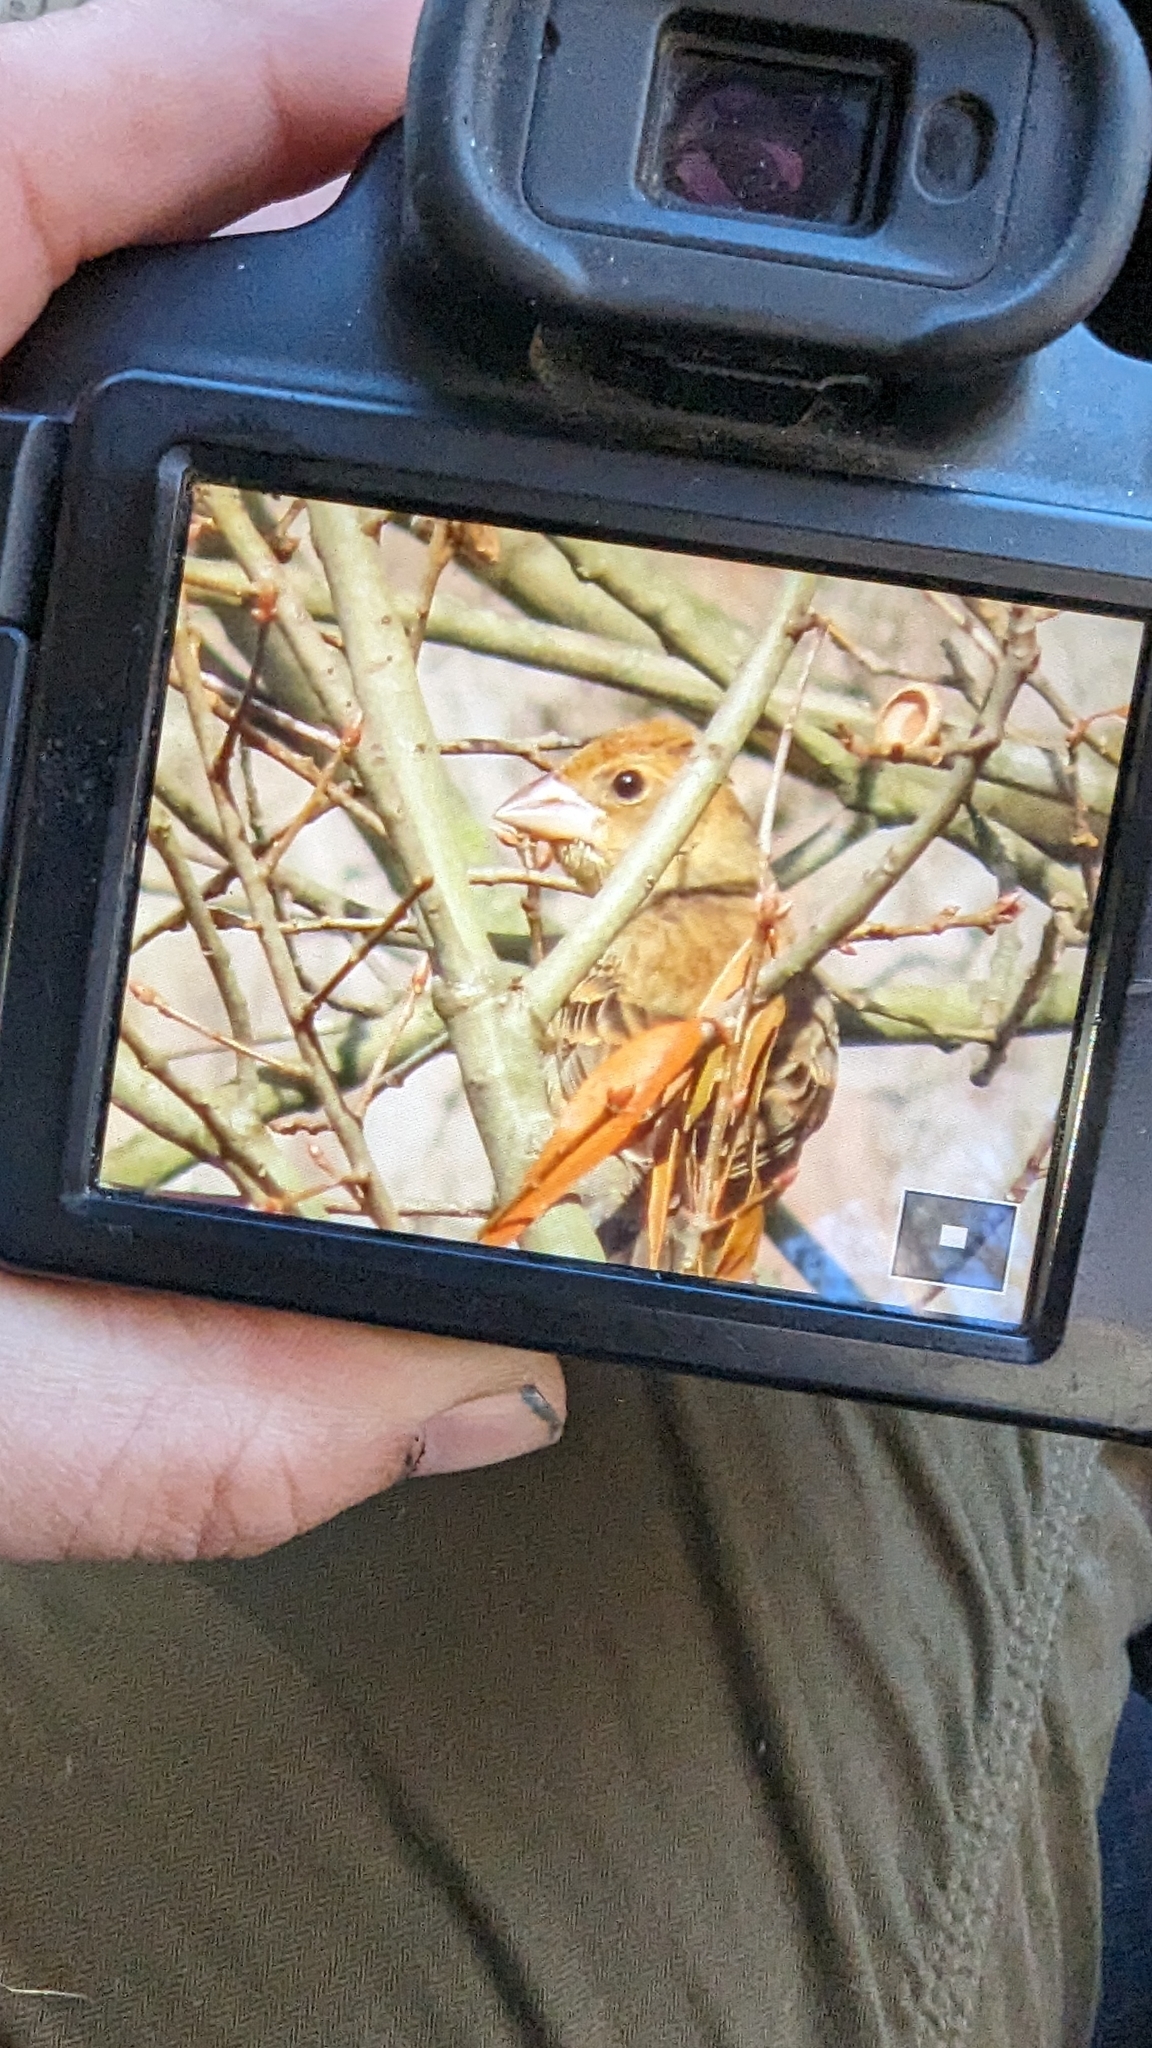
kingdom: Animalia
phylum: Chordata
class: Aves
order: Passeriformes
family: Cardinalidae
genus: Passerina
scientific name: Passerina caerulea
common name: Blue grosbeak
